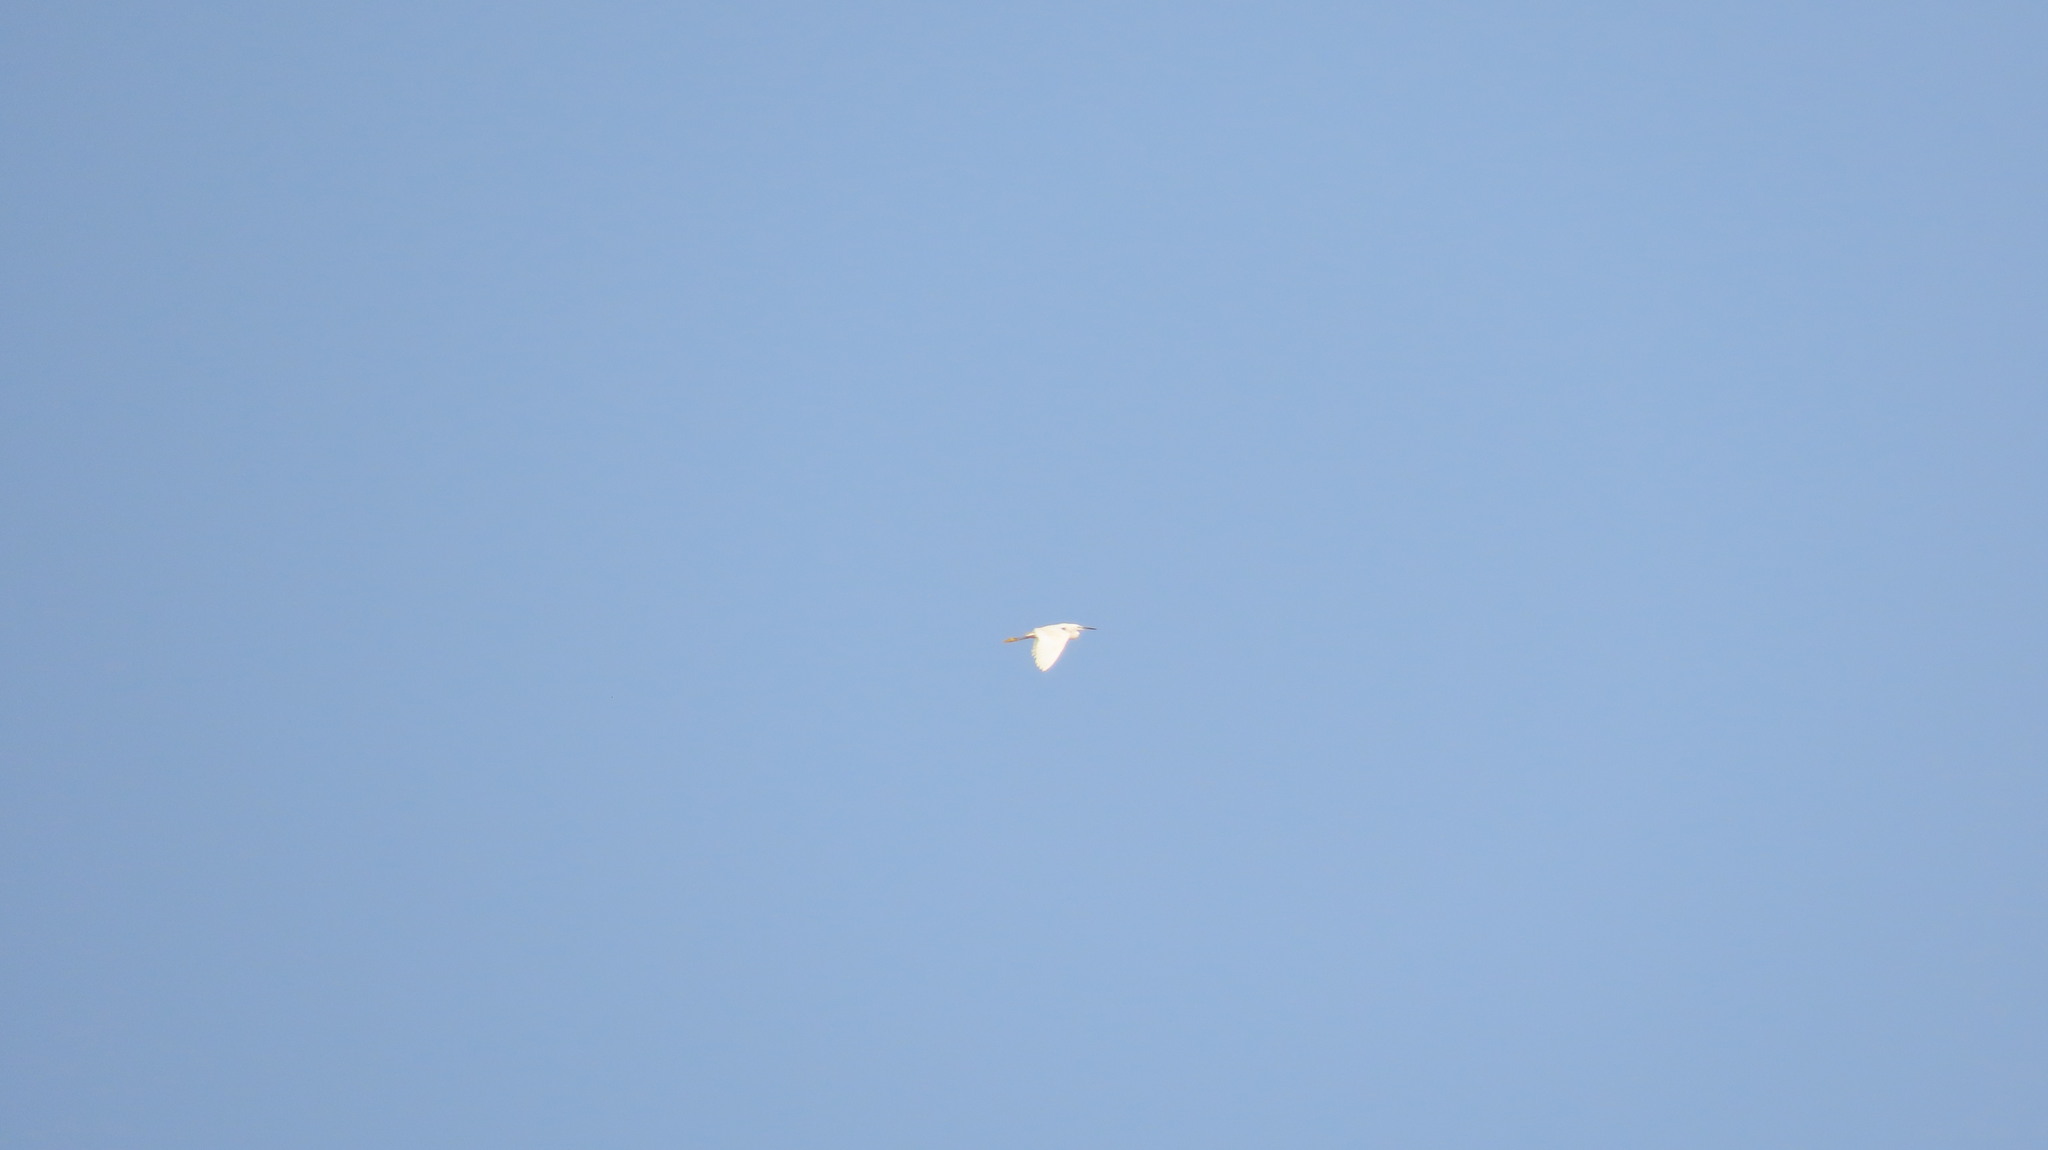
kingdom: Animalia
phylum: Chordata
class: Aves
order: Pelecaniformes
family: Ardeidae
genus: Egretta
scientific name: Egretta garzetta
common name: Little egret
